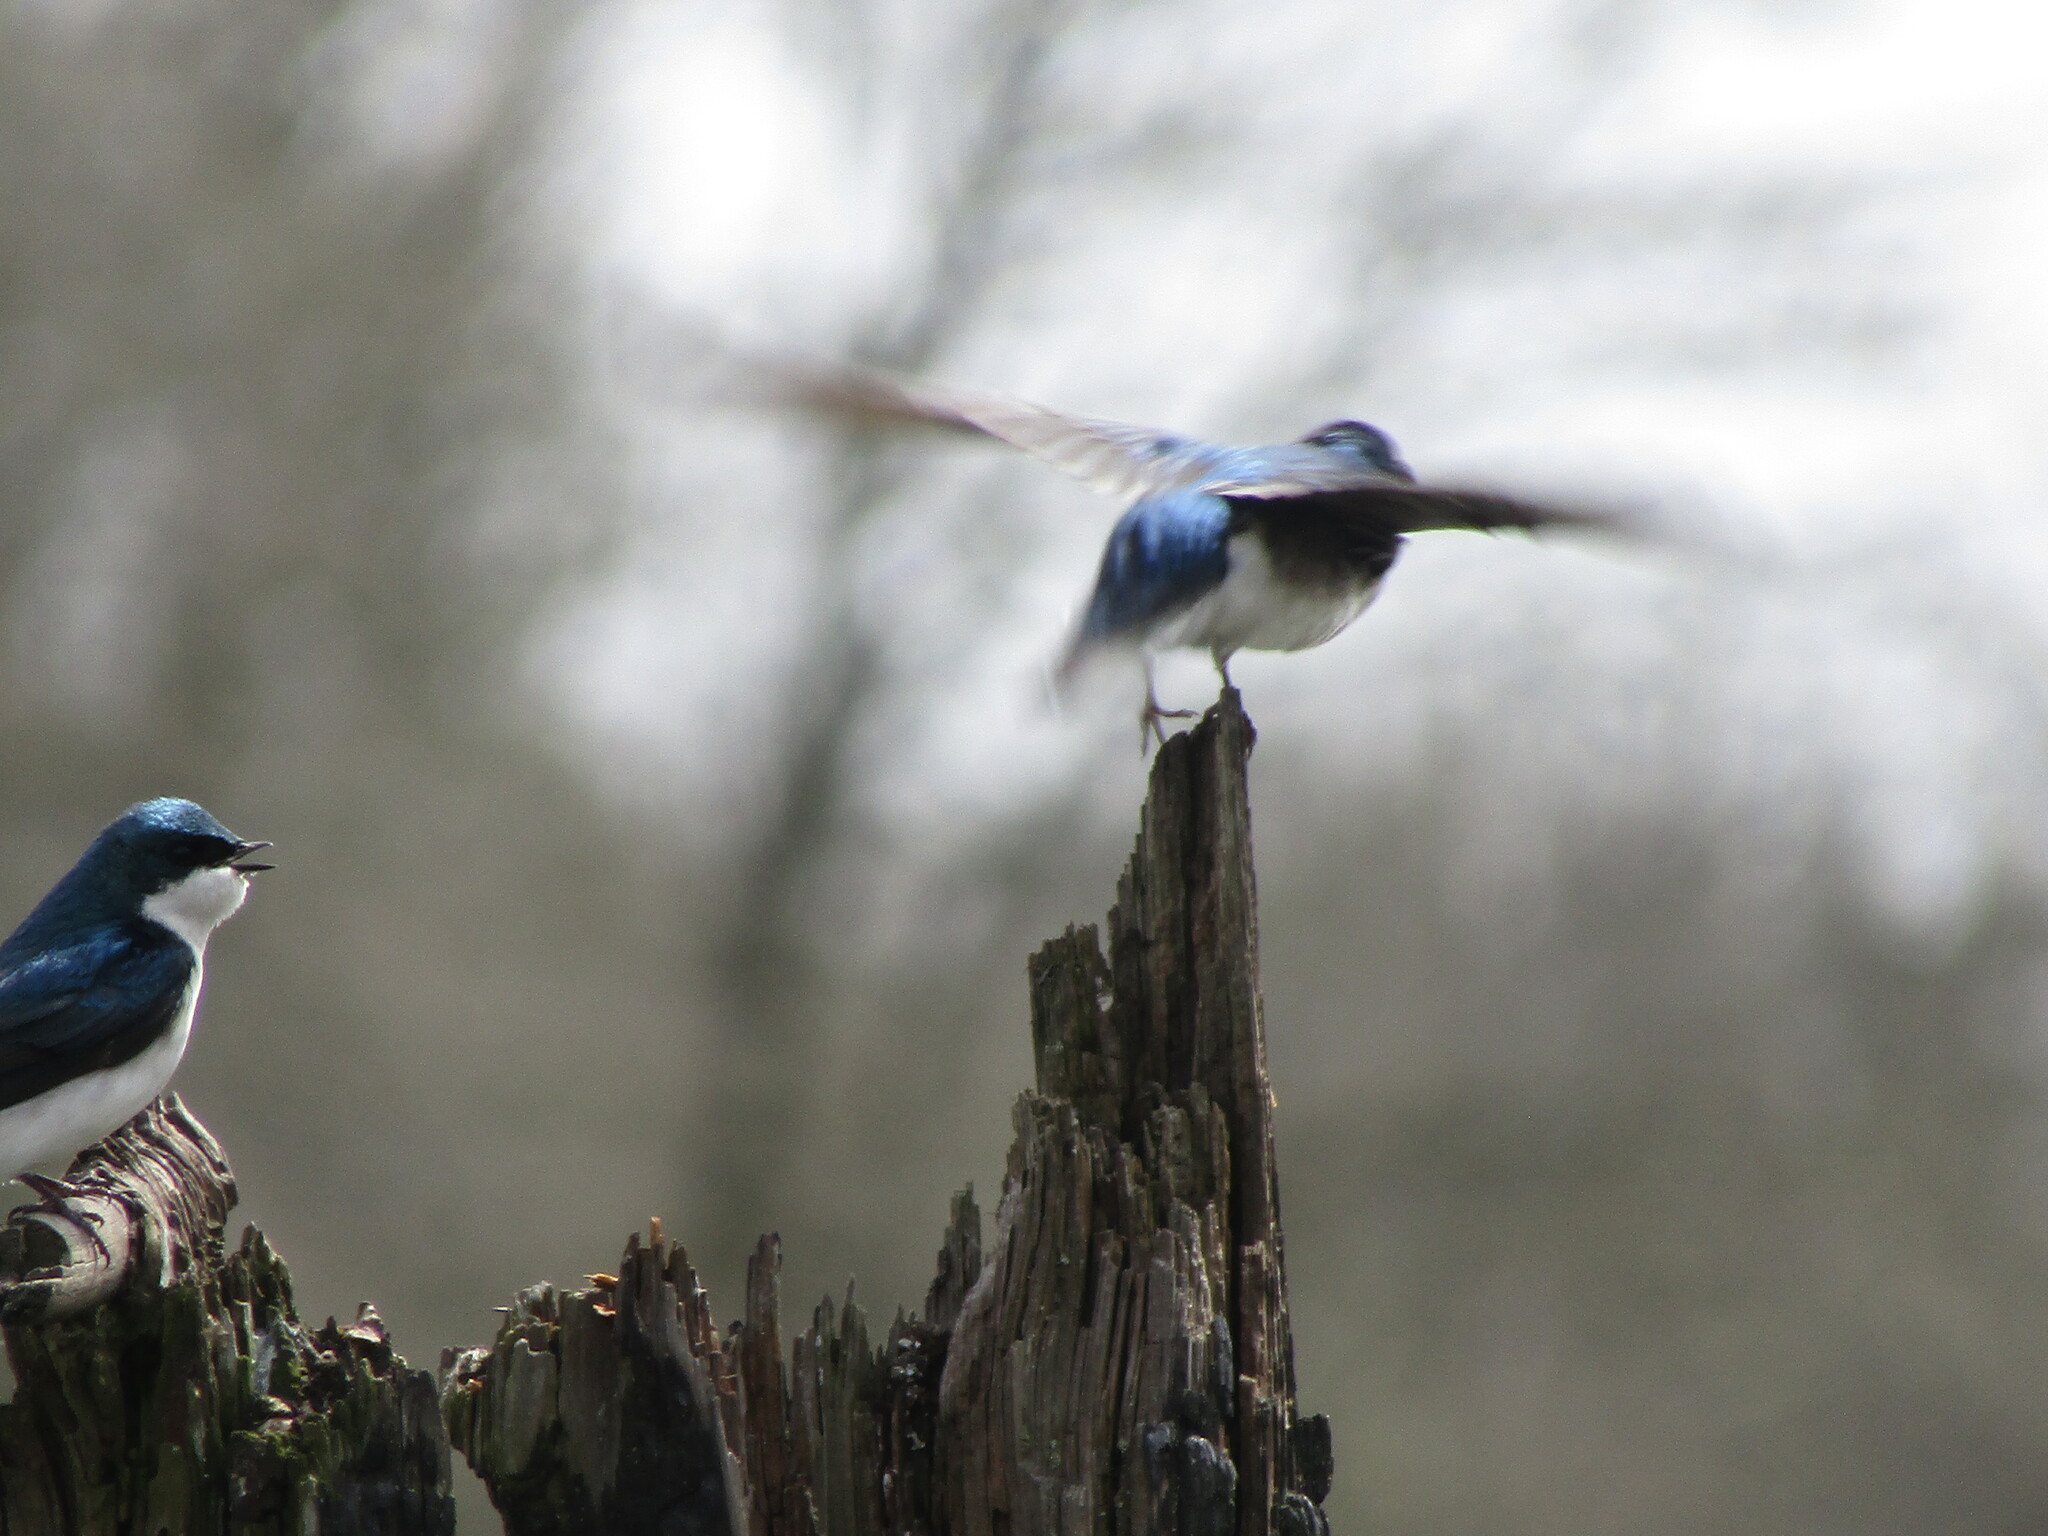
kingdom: Animalia
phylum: Chordata
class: Aves
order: Passeriformes
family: Hirundinidae
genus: Tachycineta
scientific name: Tachycineta bicolor
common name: Tree swallow
